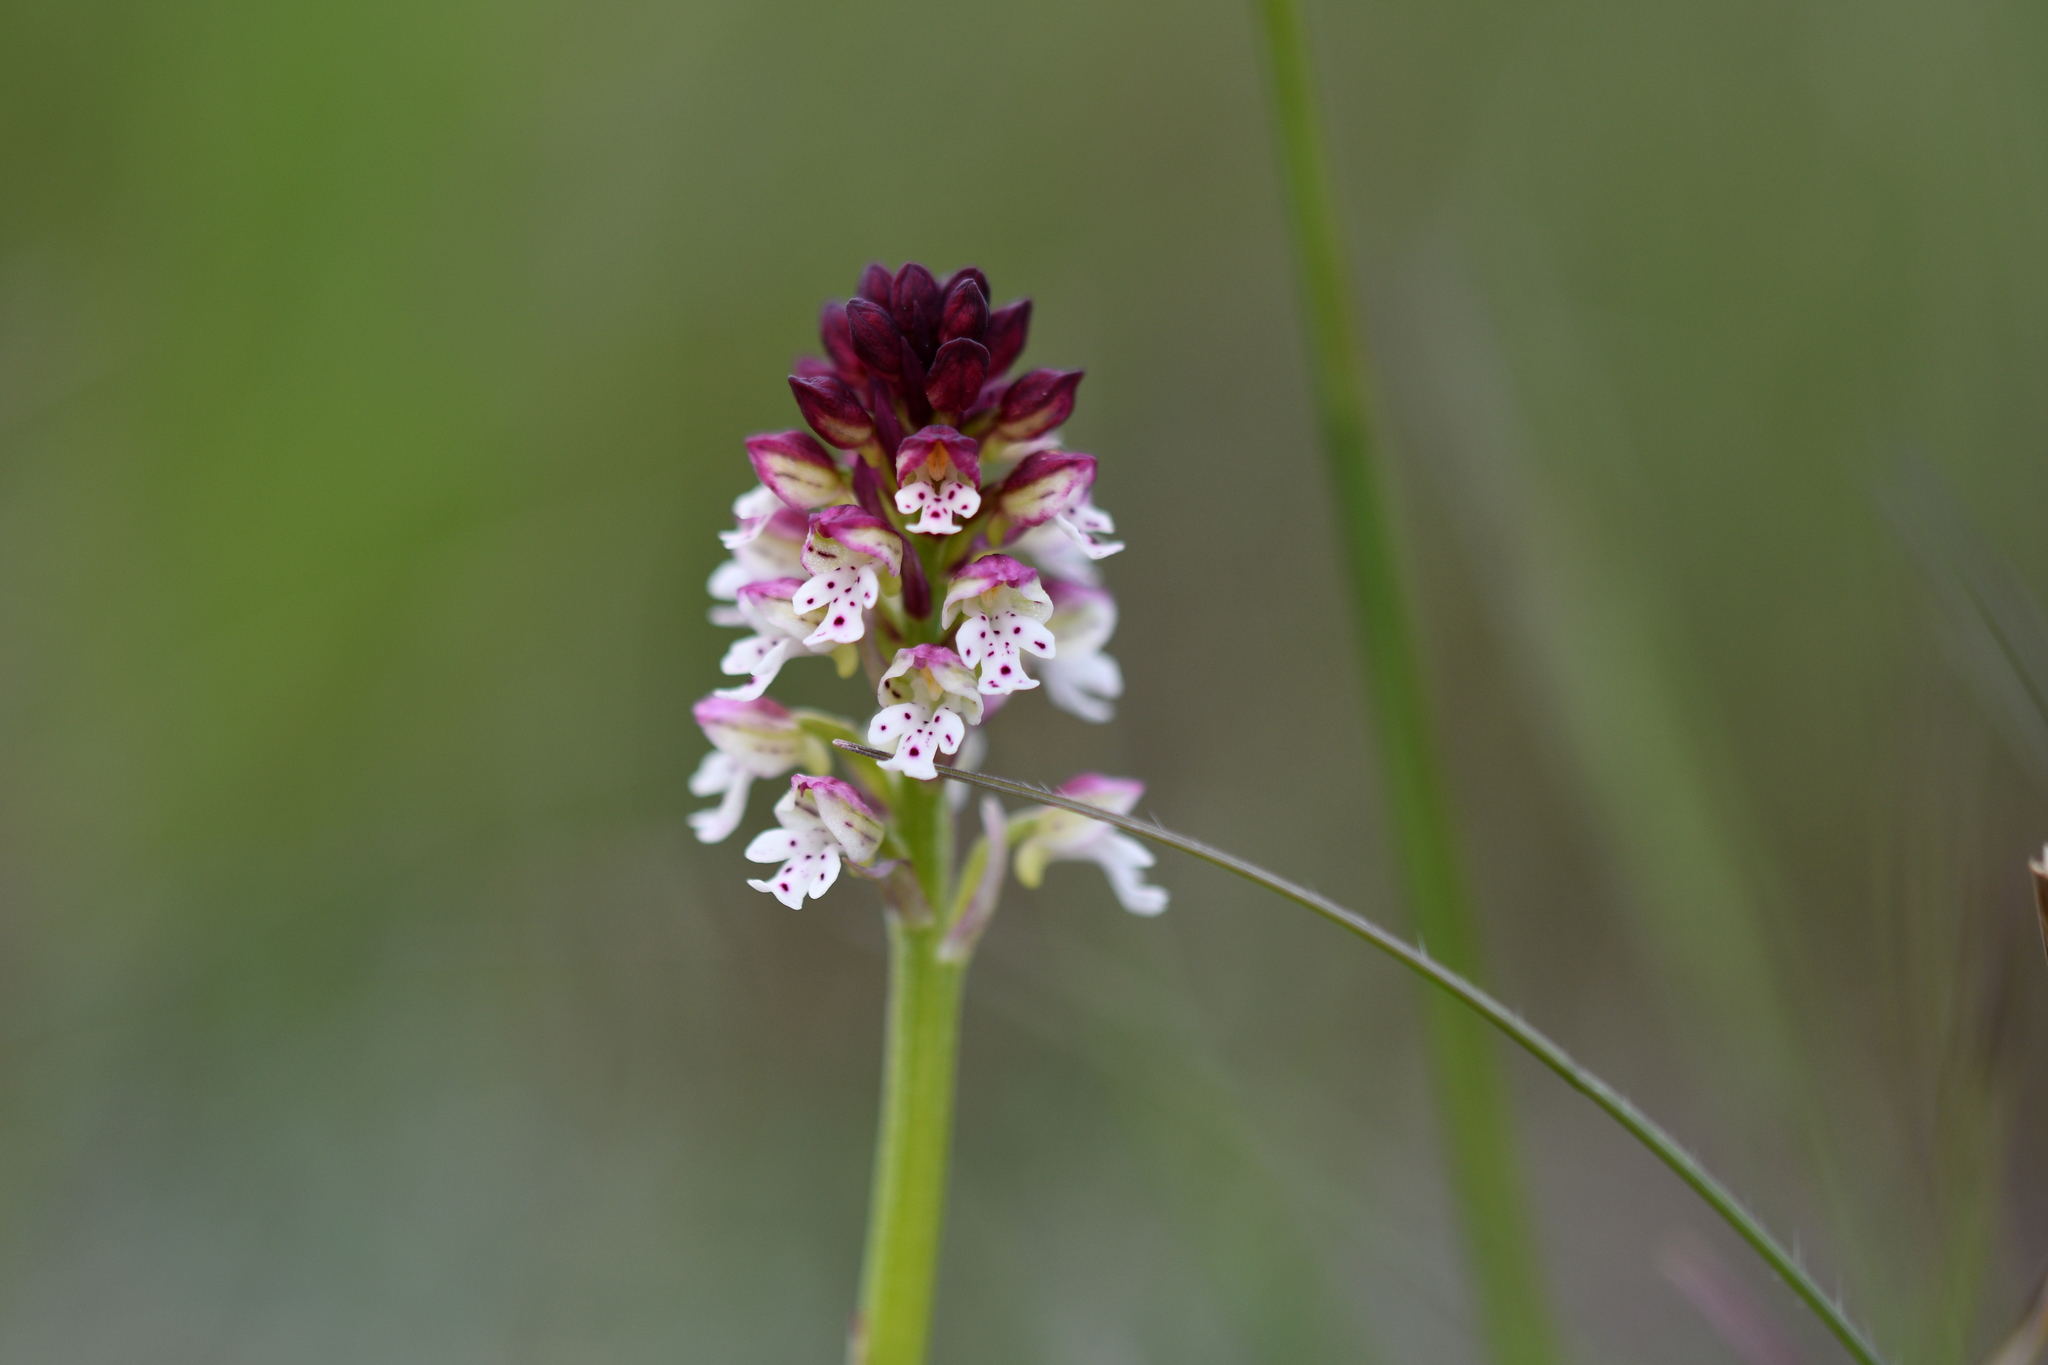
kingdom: Plantae
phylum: Tracheophyta
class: Liliopsida
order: Asparagales
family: Orchidaceae
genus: Neotinea
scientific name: Neotinea ustulata
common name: Burnt orchid
